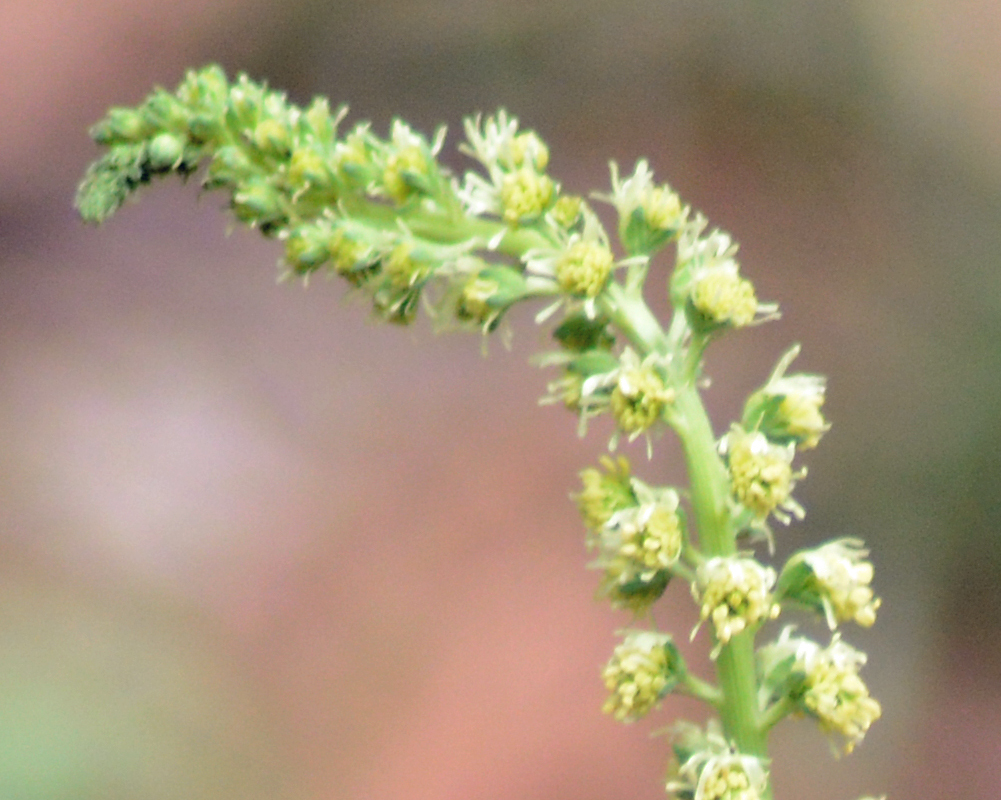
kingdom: Plantae
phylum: Tracheophyta
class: Magnoliopsida
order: Brassicales
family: Resedaceae
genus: Reseda
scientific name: Reseda luteola
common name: Weld
